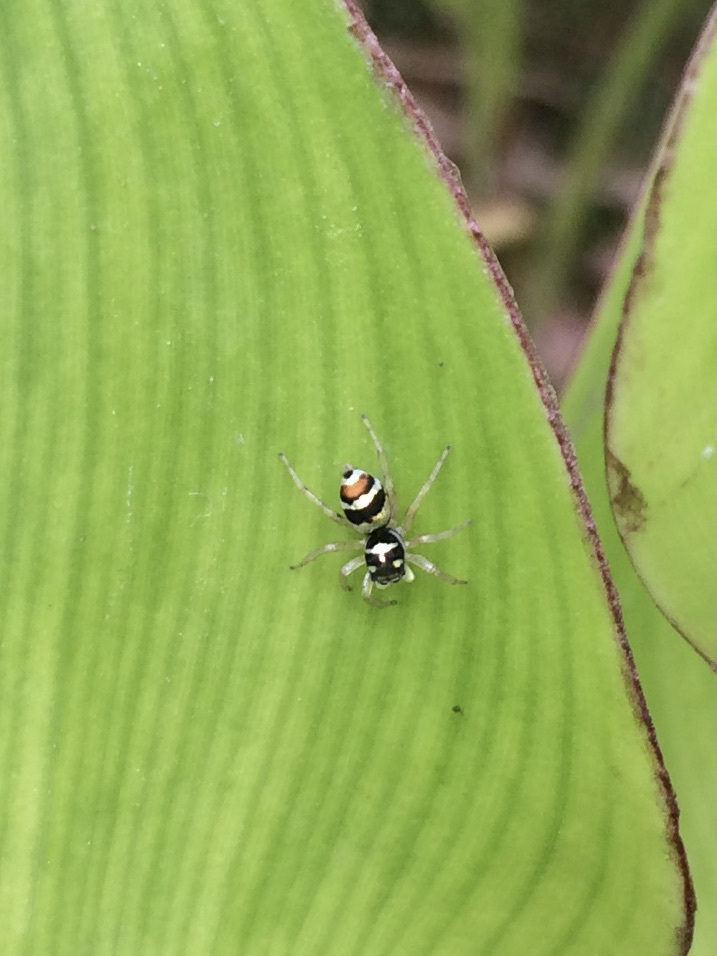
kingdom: Animalia
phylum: Arthropoda
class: Arachnida
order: Araneae
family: Salticidae
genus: Phintella
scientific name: Phintella vittata
